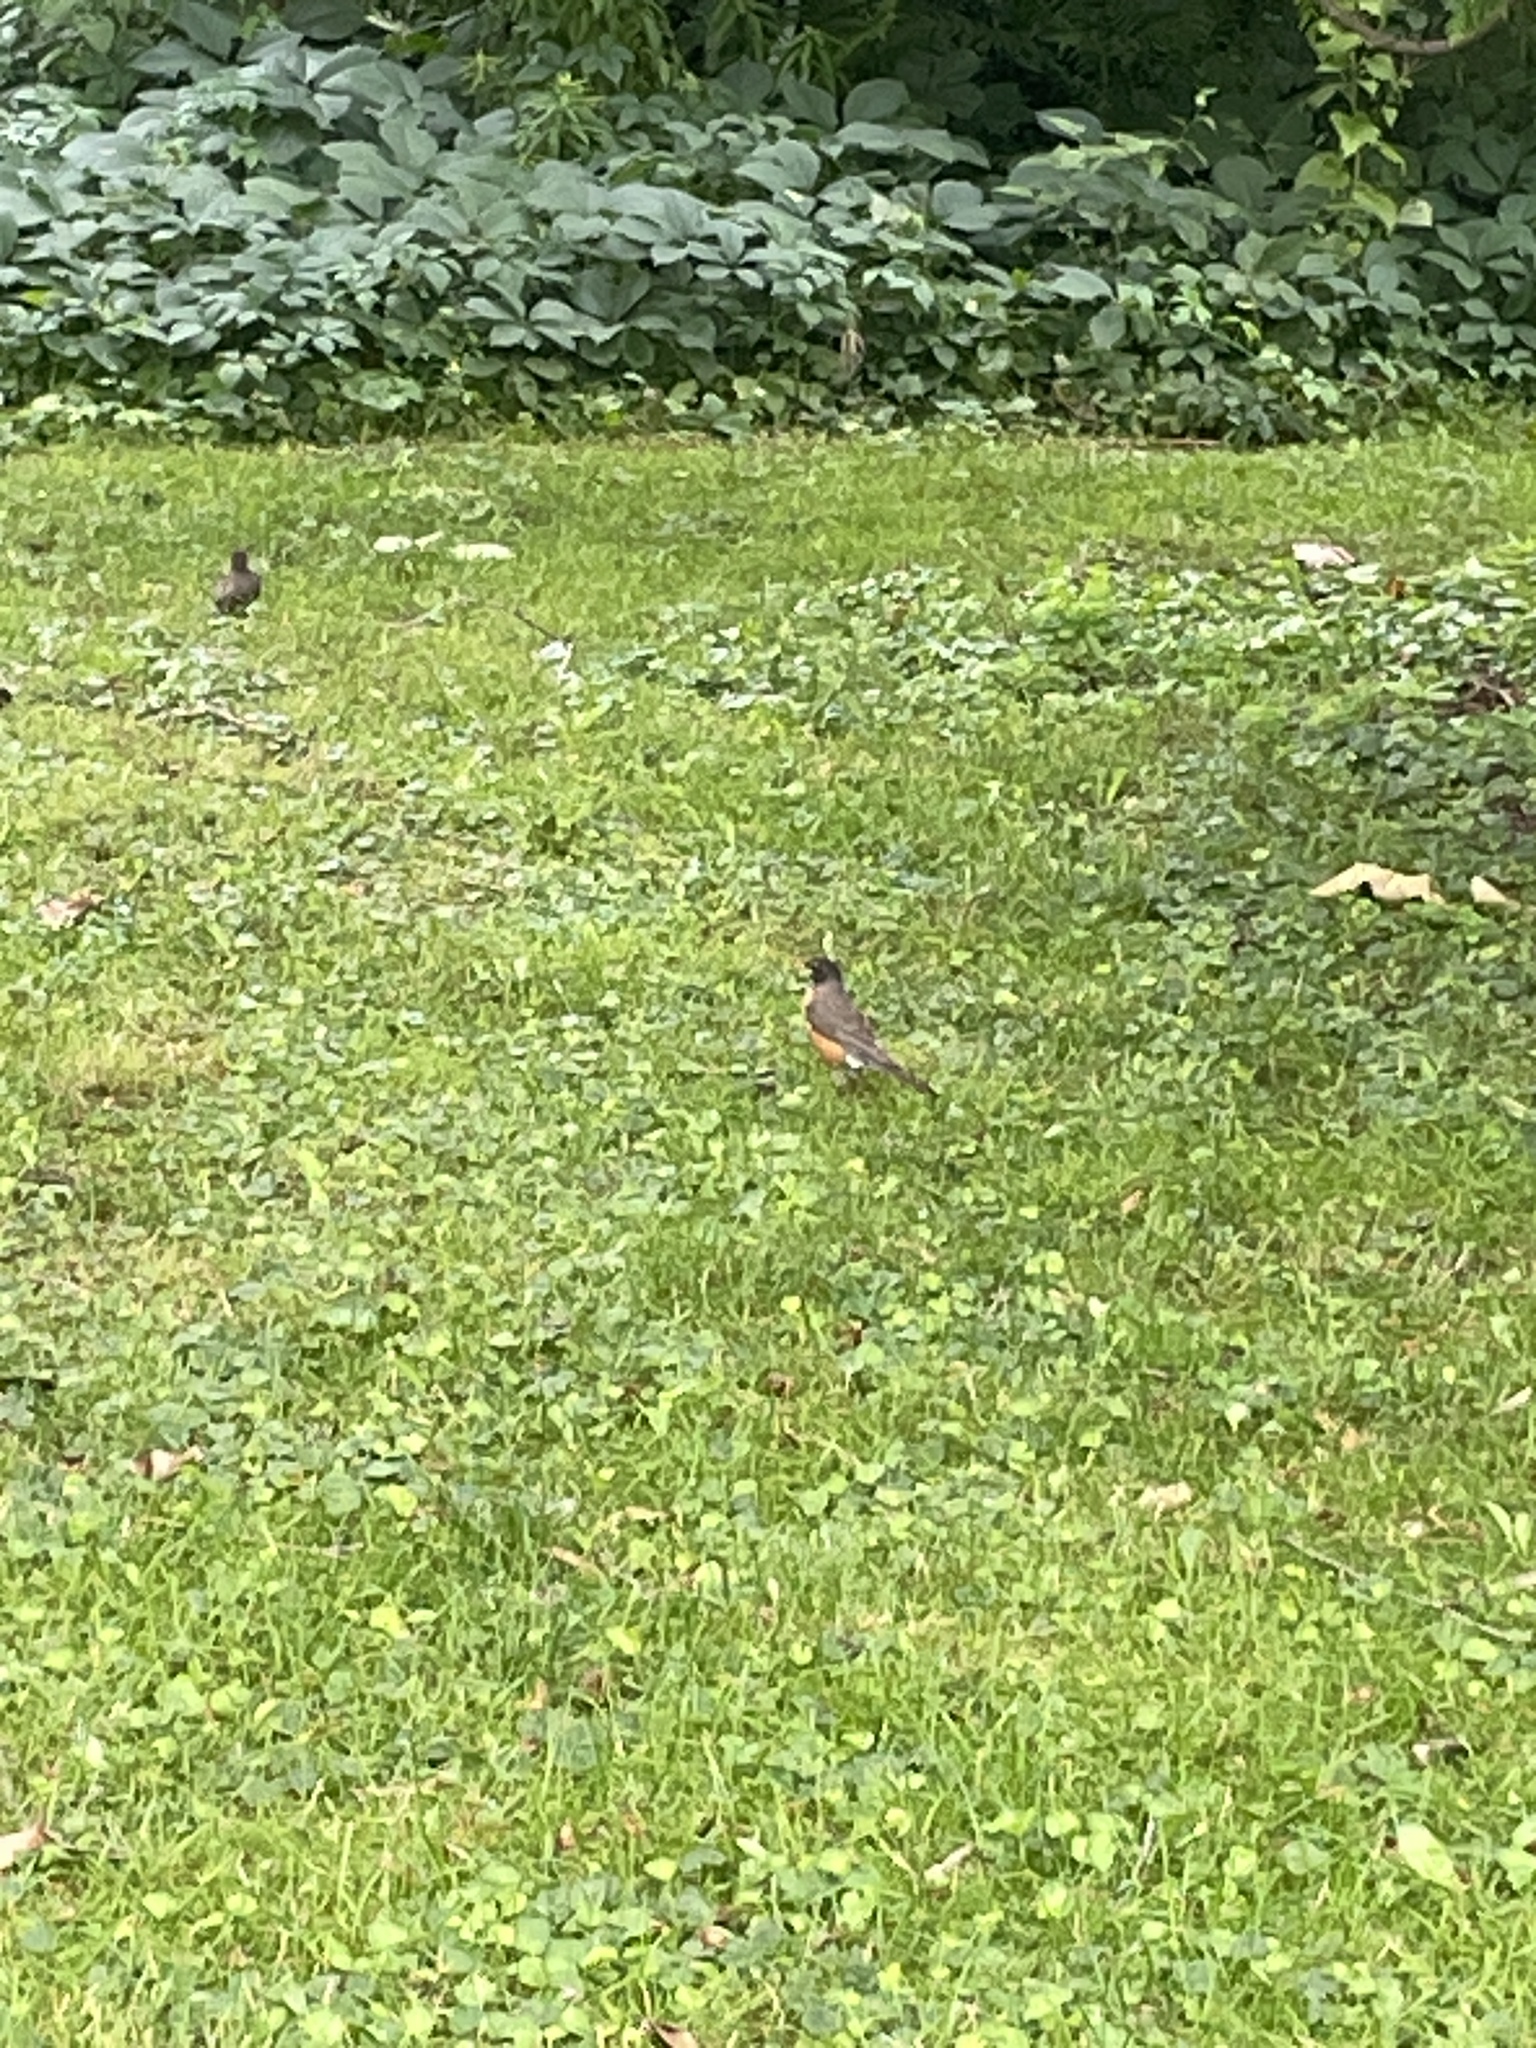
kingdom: Animalia
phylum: Chordata
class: Aves
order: Passeriformes
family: Turdidae
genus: Turdus
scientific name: Turdus migratorius
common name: American robin
